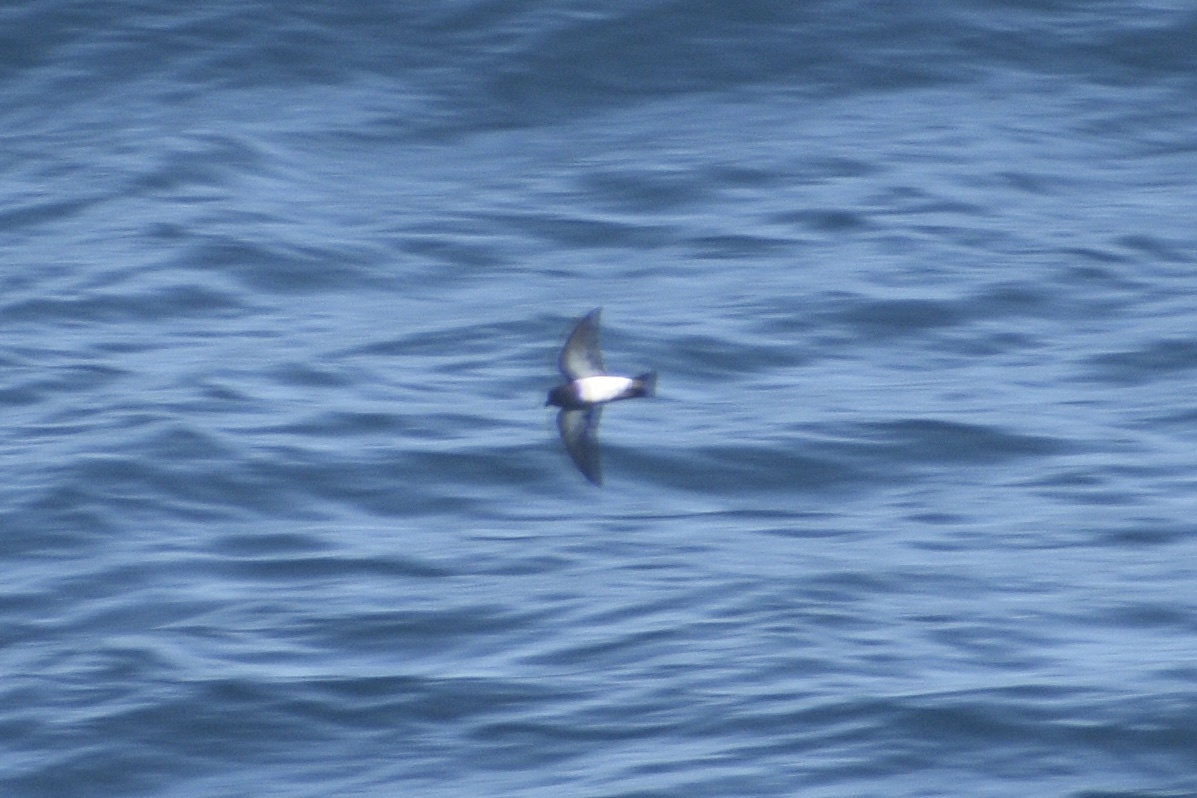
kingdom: Animalia
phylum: Chordata
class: Aves
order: Procellariiformes
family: Hydrobatidae
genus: Fregetta
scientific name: Fregetta tropica
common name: Black-bellied storm-petrel
